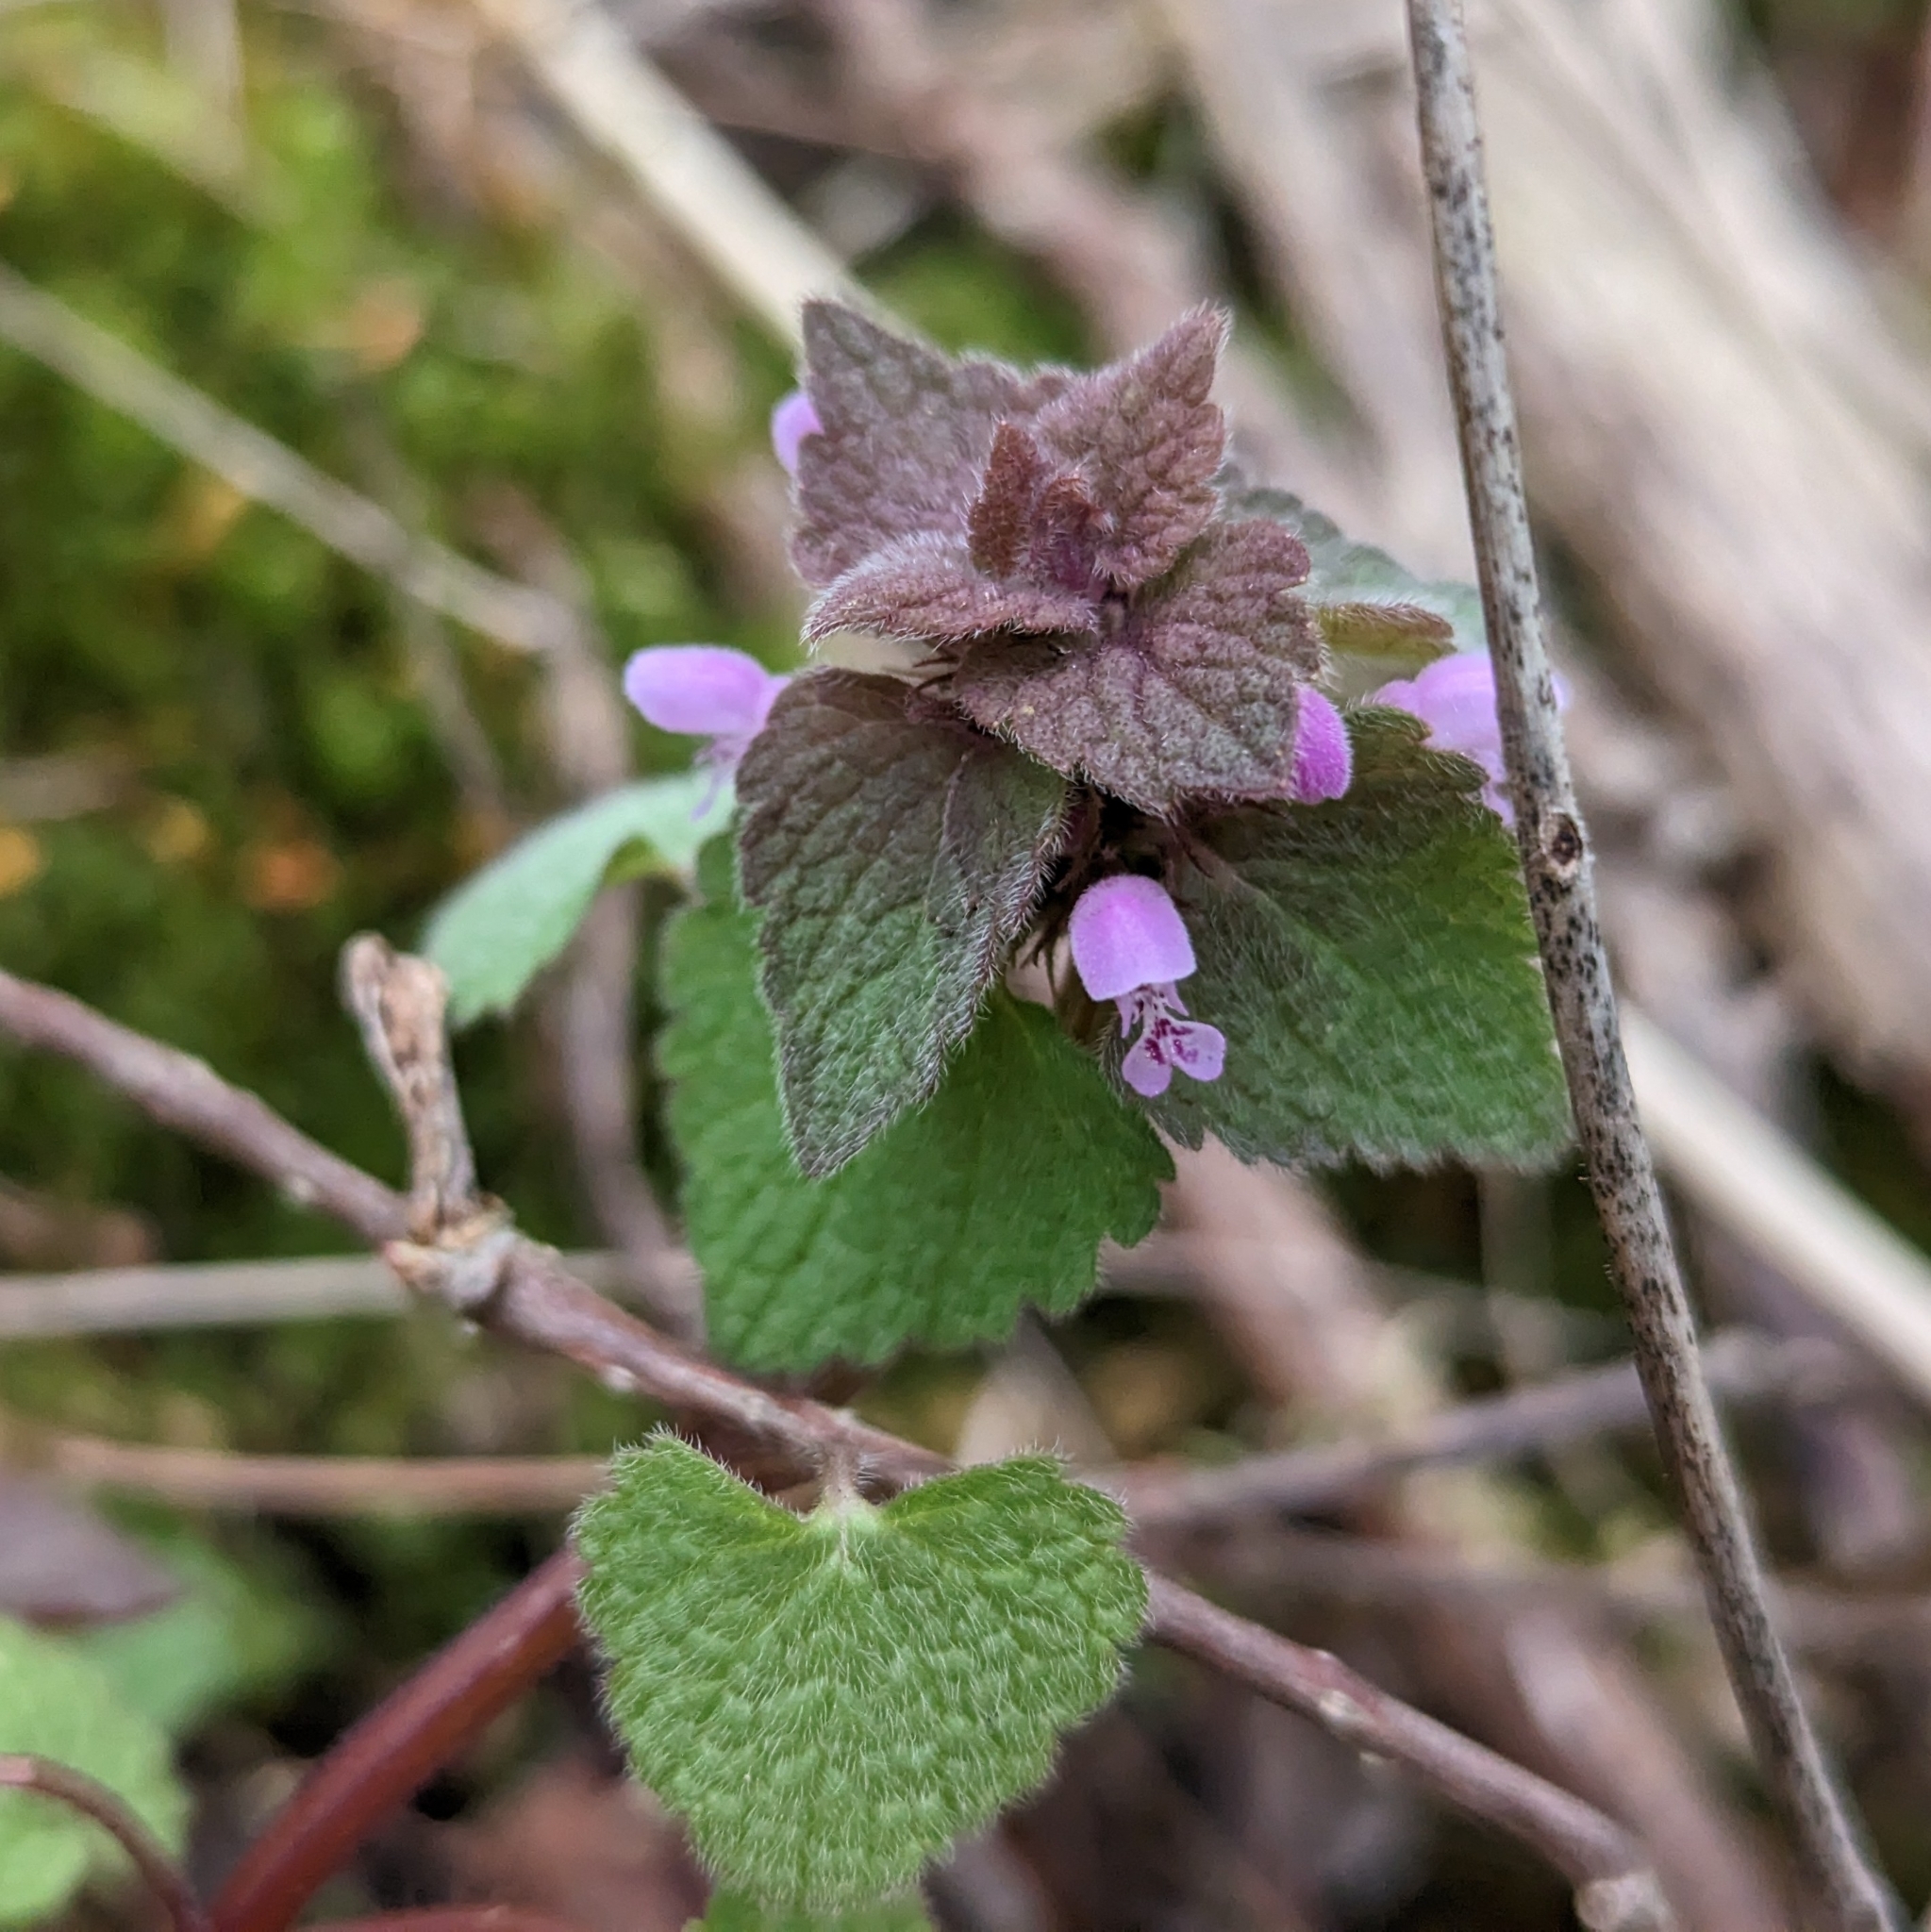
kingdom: Plantae
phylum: Tracheophyta
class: Magnoliopsida
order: Lamiales
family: Lamiaceae
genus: Lamium
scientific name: Lamium purpureum
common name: Red dead-nettle
